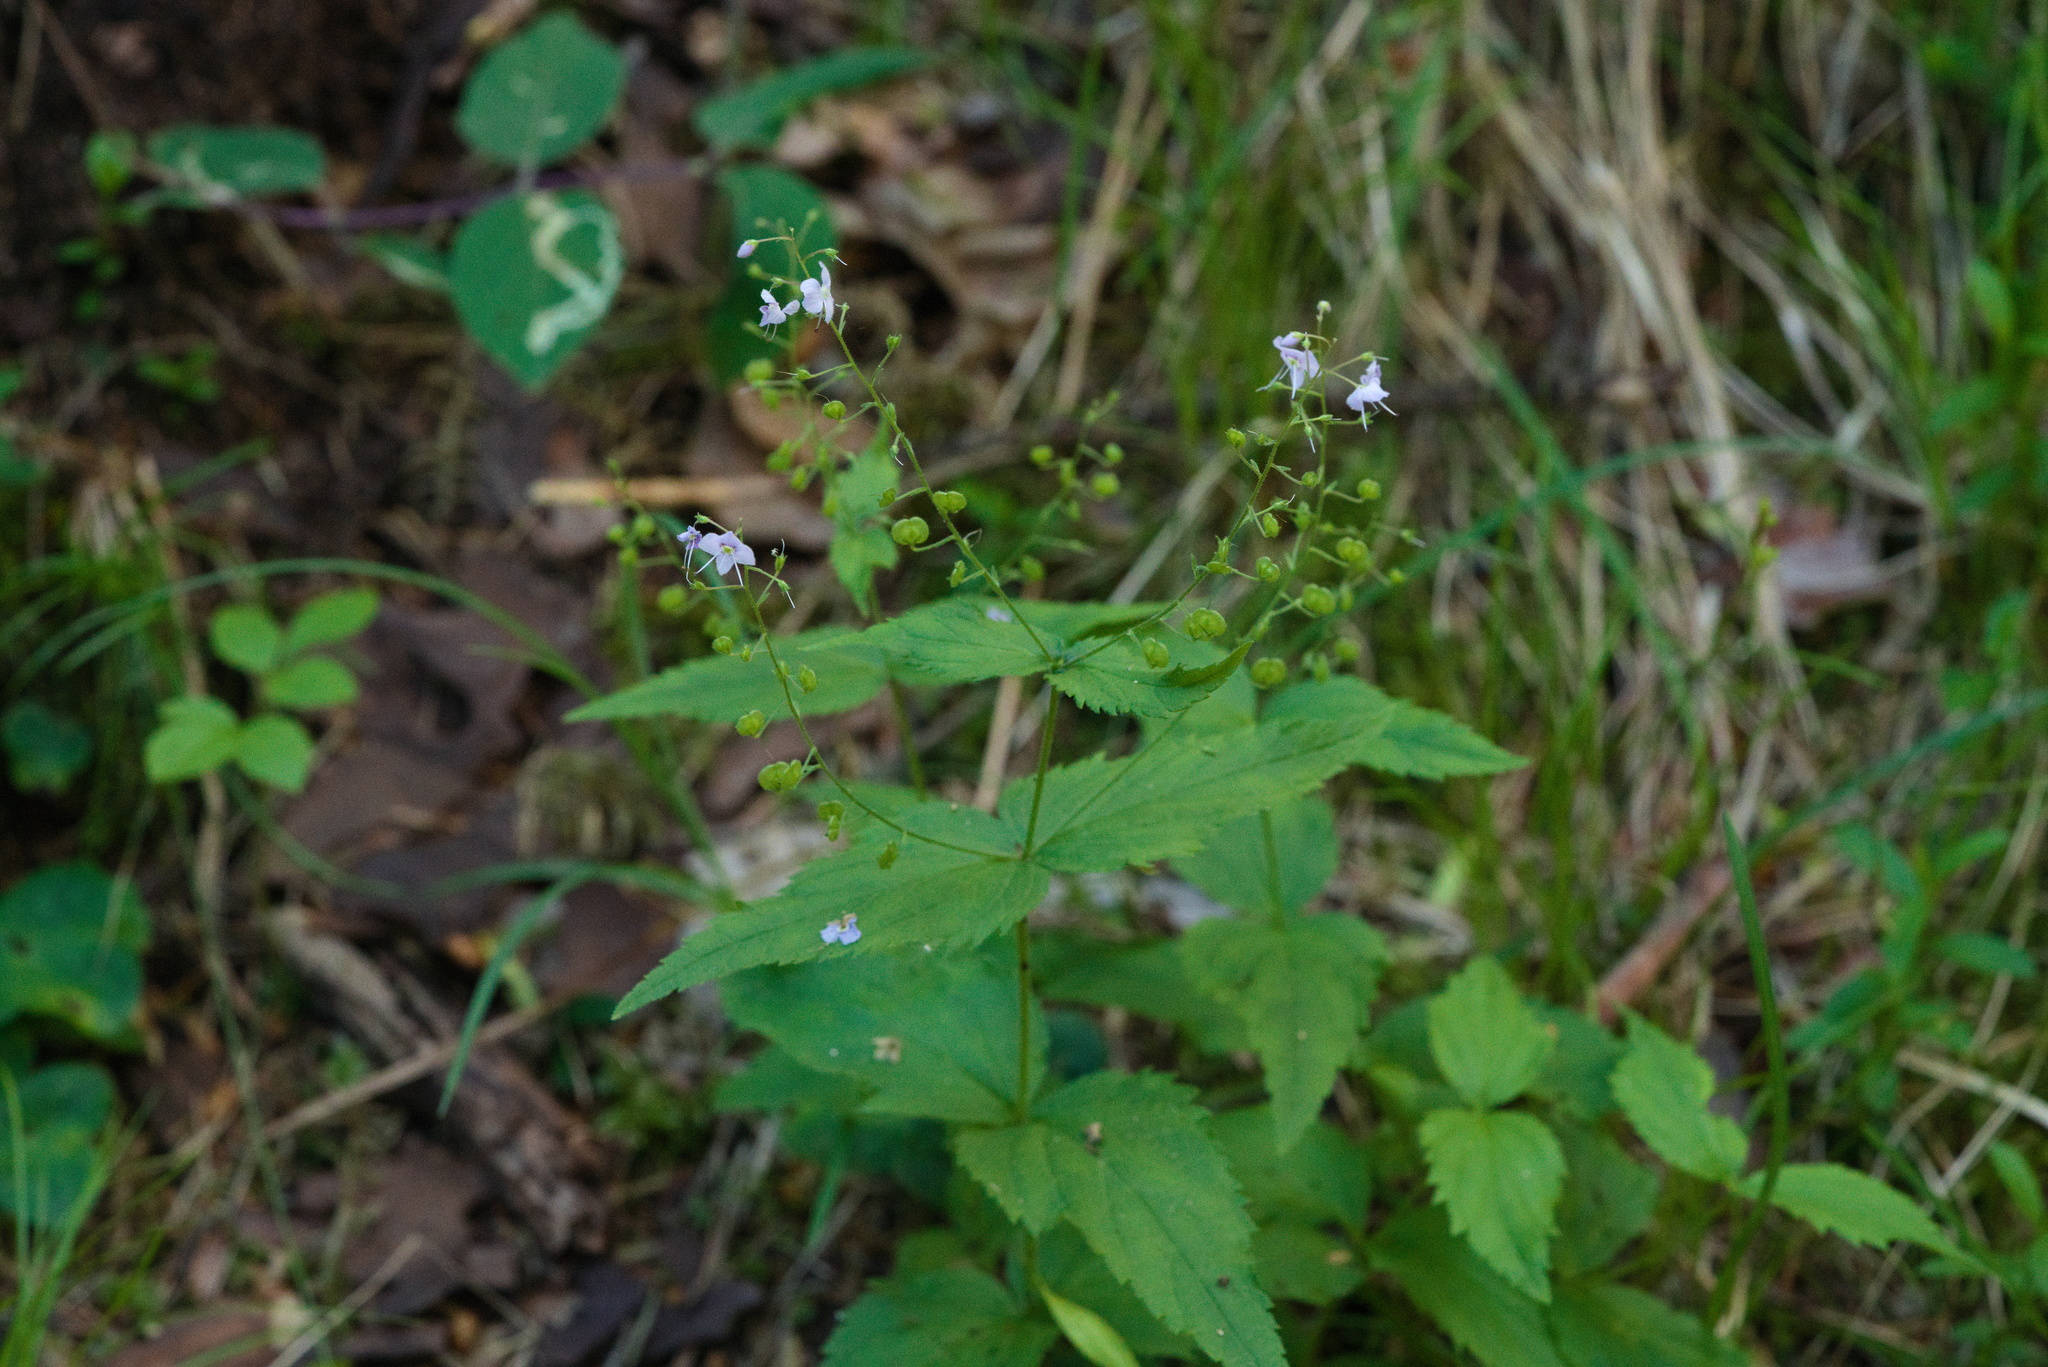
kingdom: Plantae
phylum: Tracheophyta
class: Magnoliopsida
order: Lamiales
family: Plantaginaceae
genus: Veronica
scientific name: Veronica urticifolia
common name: Nettle-leaf speedwell
